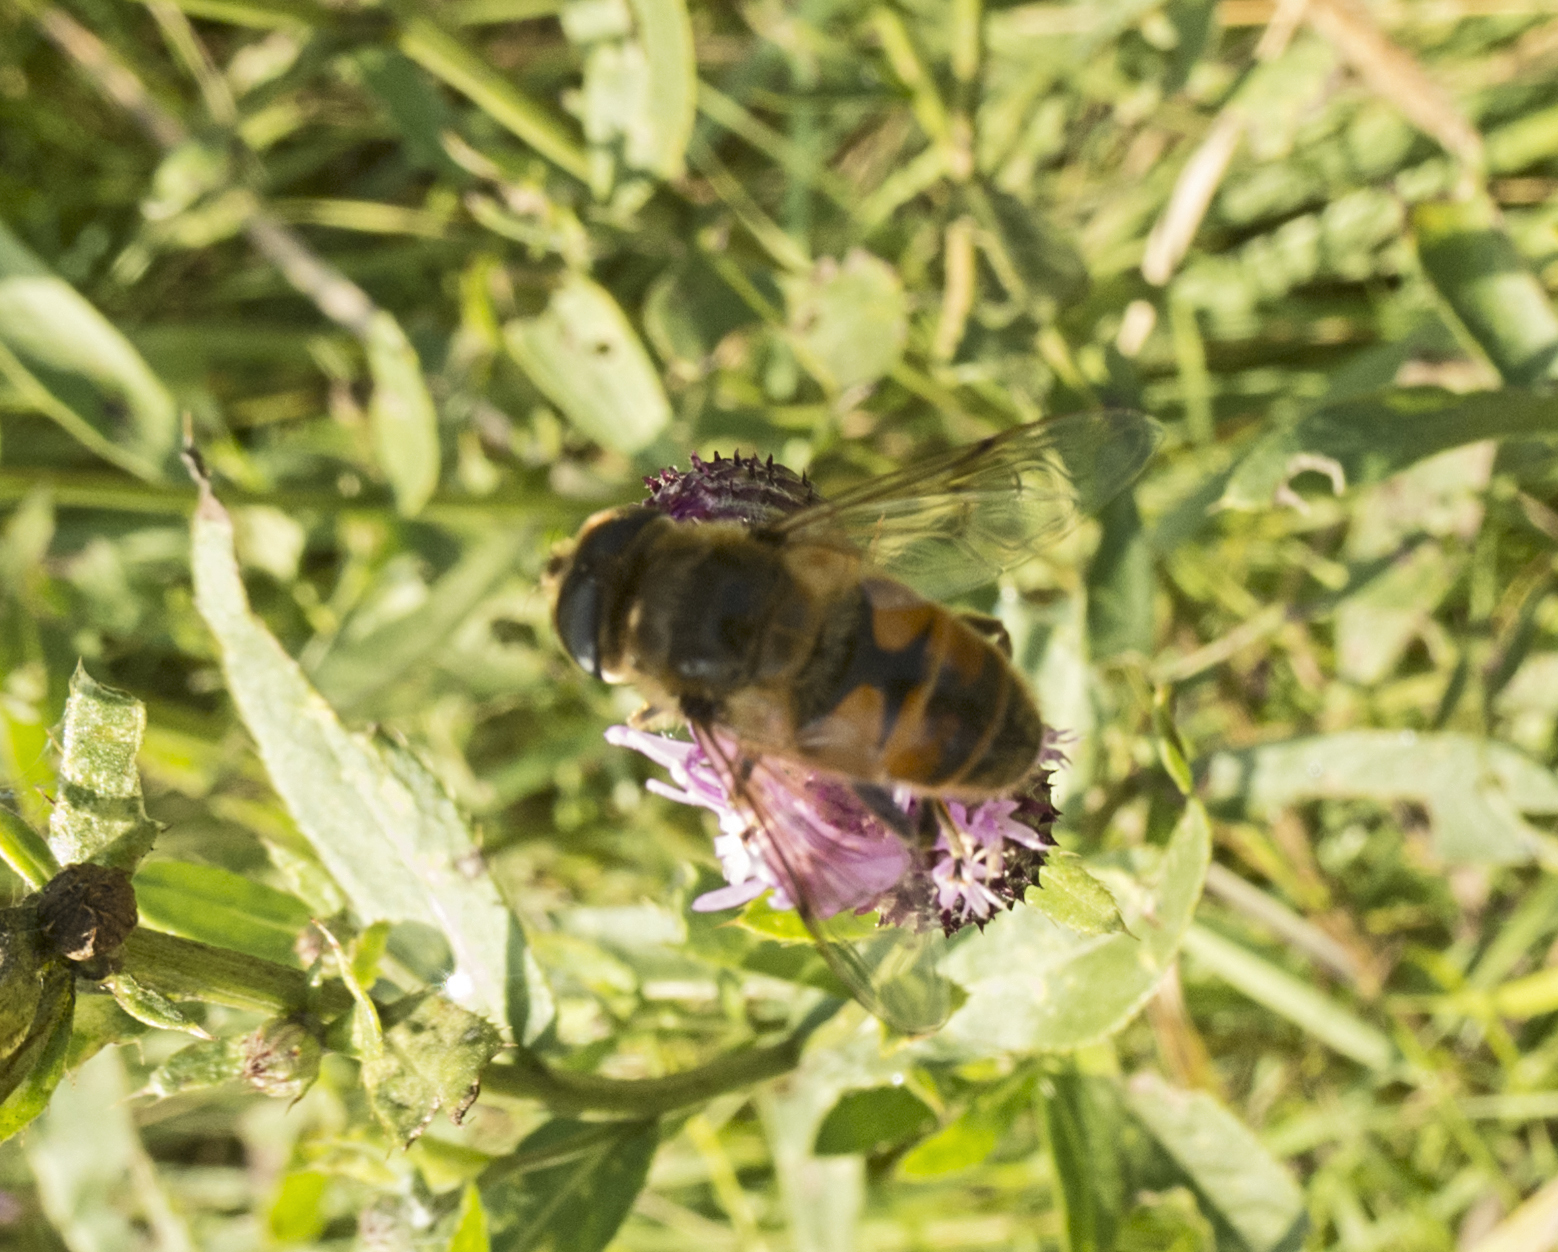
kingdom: Animalia
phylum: Arthropoda
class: Insecta
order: Diptera
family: Syrphidae
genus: Eristalis
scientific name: Eristalis tenax
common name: Drone fly
